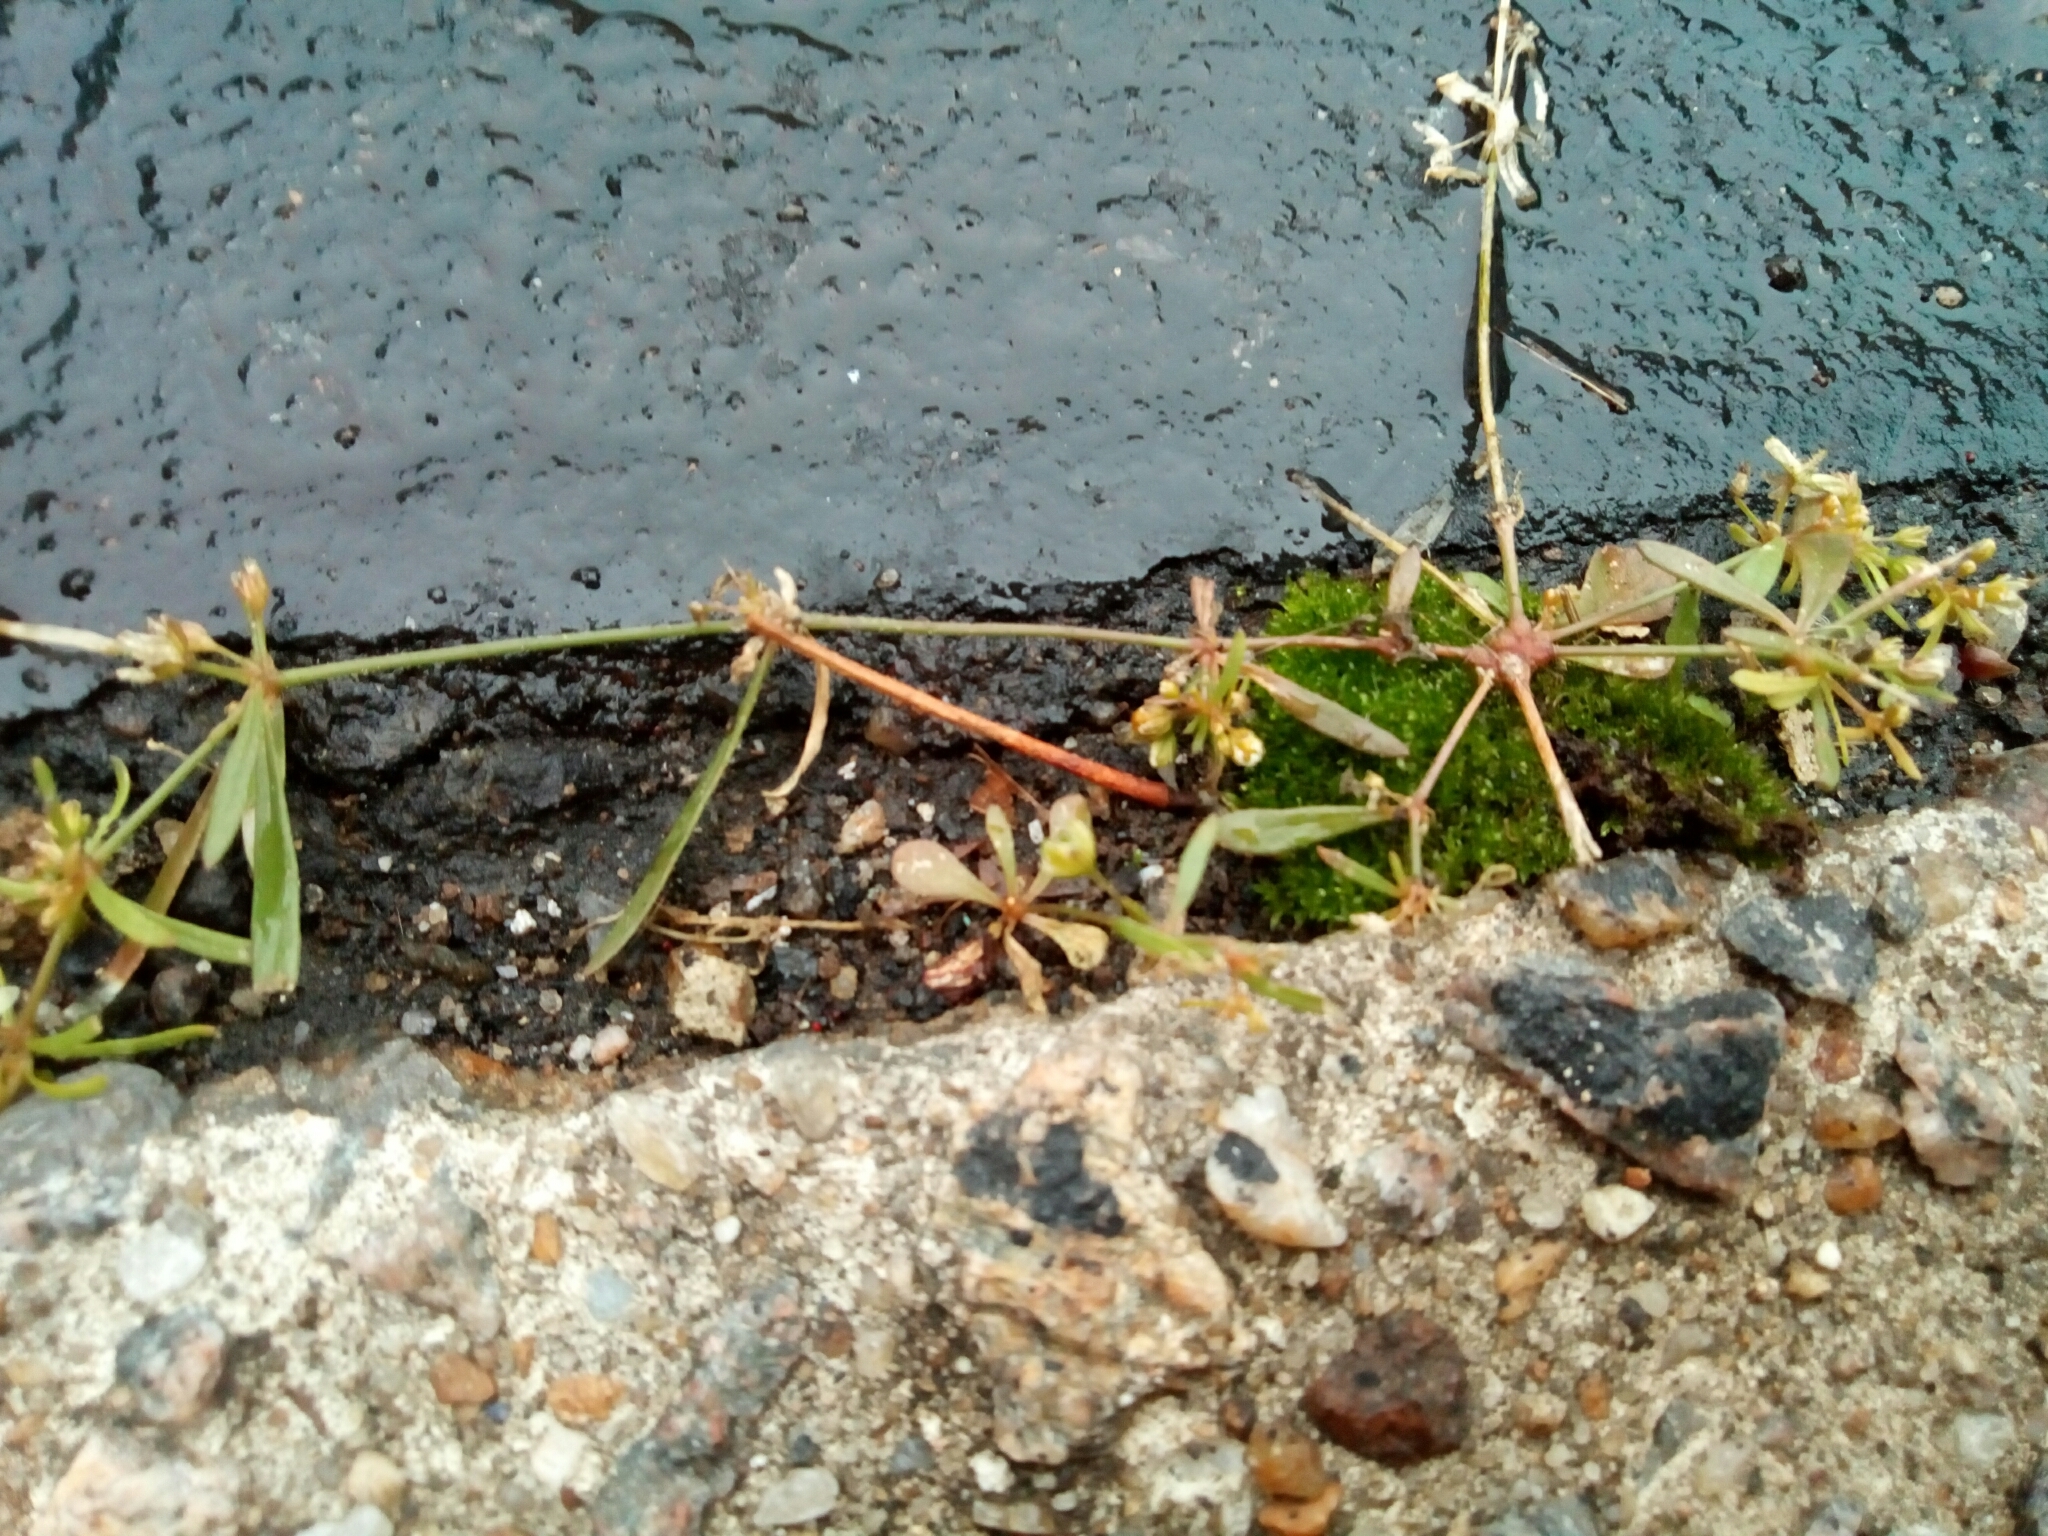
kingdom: Plantae
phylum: Tracheophyta
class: Magnoliopsida
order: Caryophyllales
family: Molluginaceae
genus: Mollugo
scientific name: Mollugo verticillata
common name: Green carpetweed
